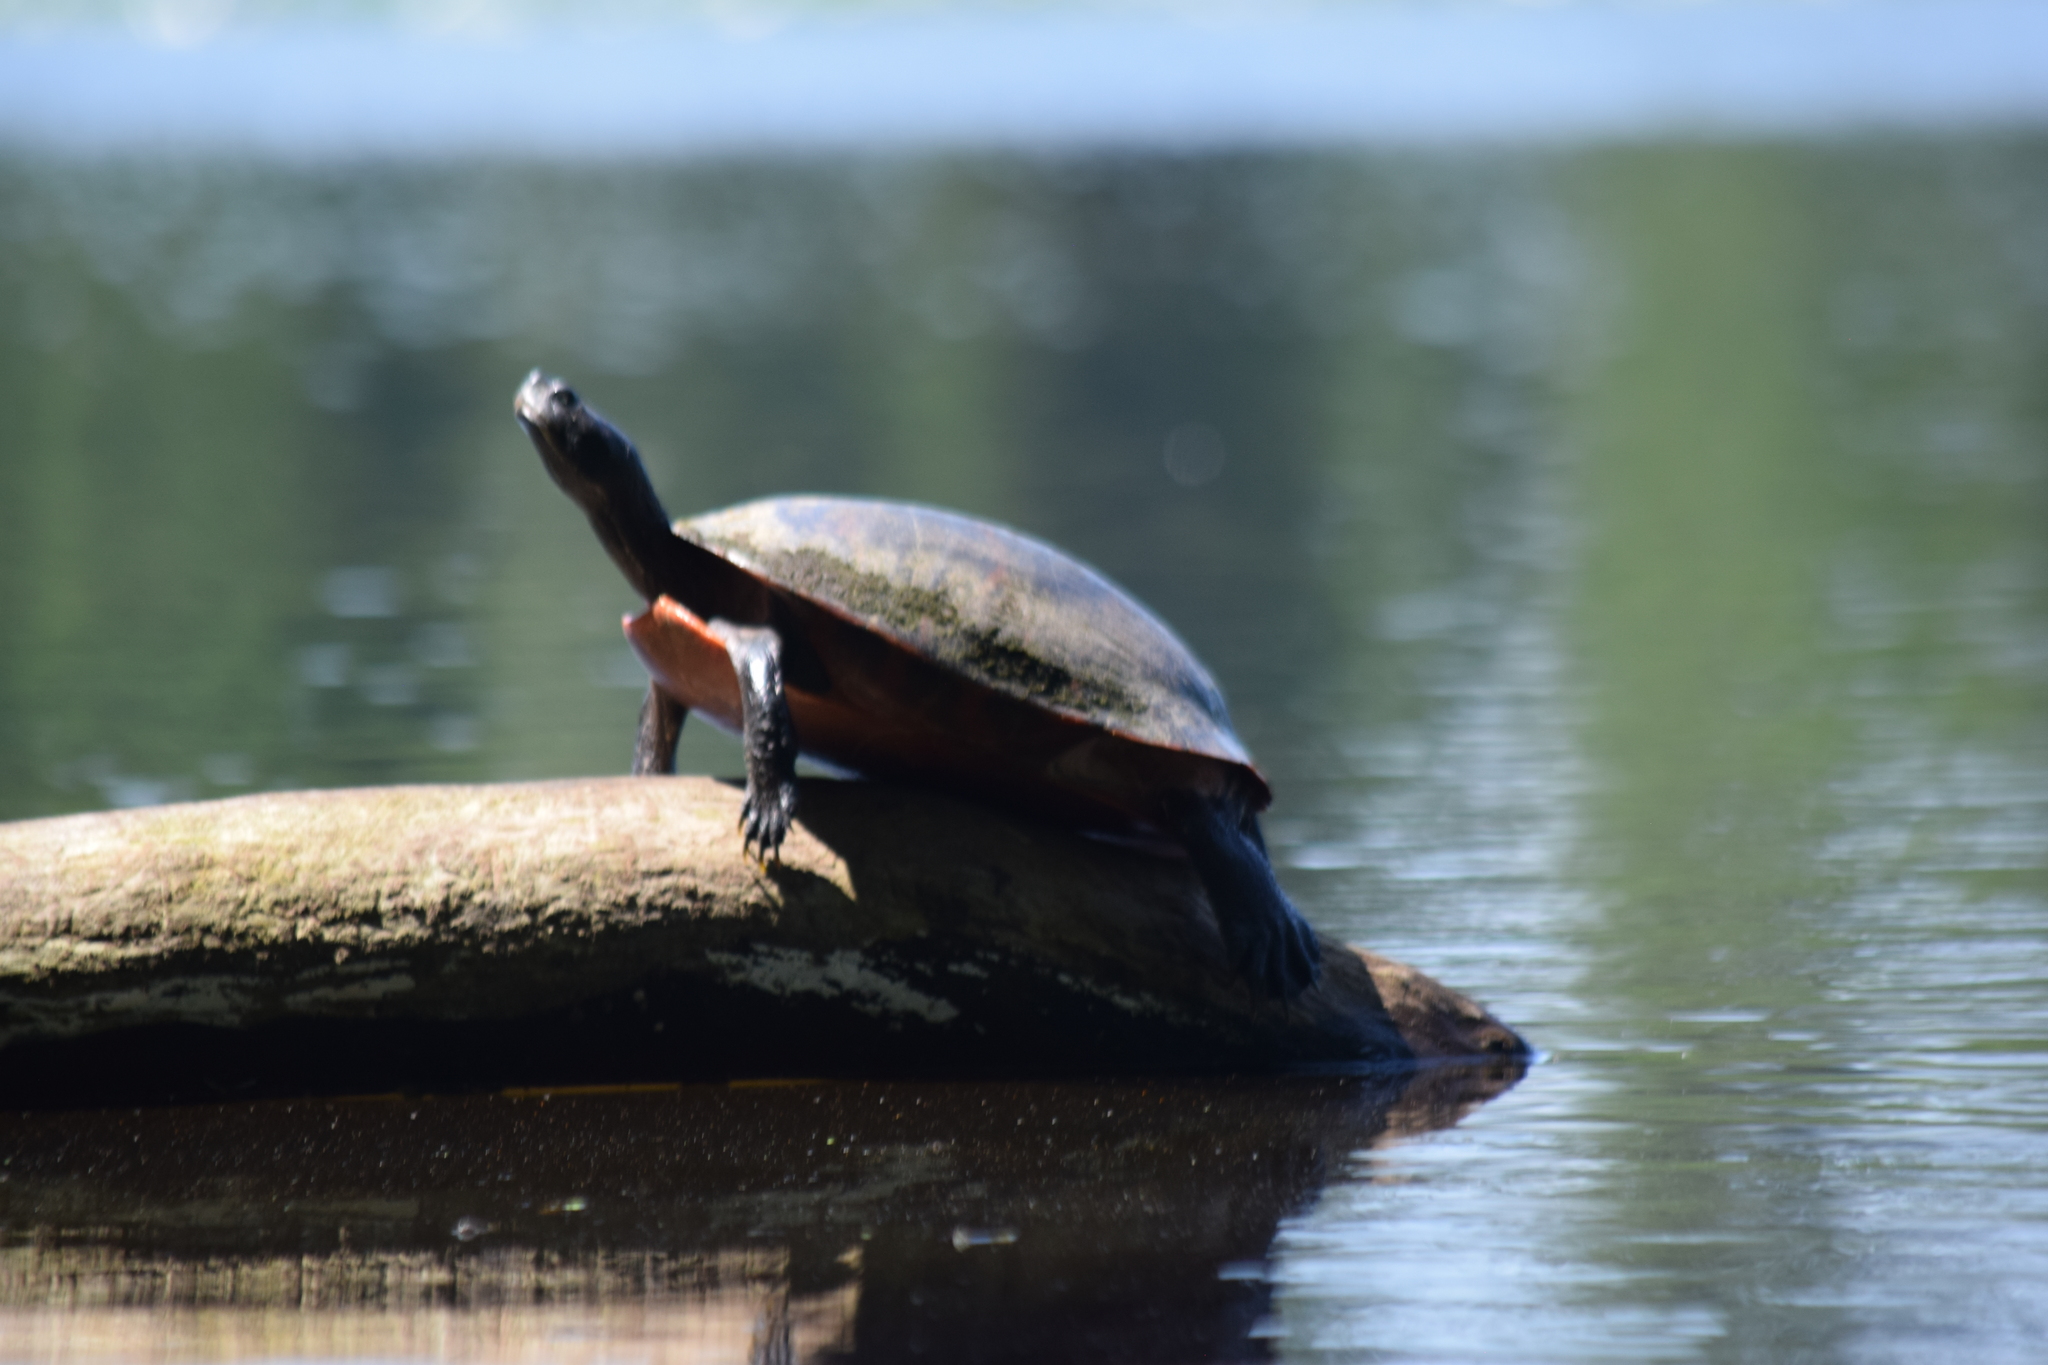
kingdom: Animalia
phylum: Chordata
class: Testudines
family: Emydidae
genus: Pseudemys
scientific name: Pseudemys rubriventris
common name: American red-bellied turtle
